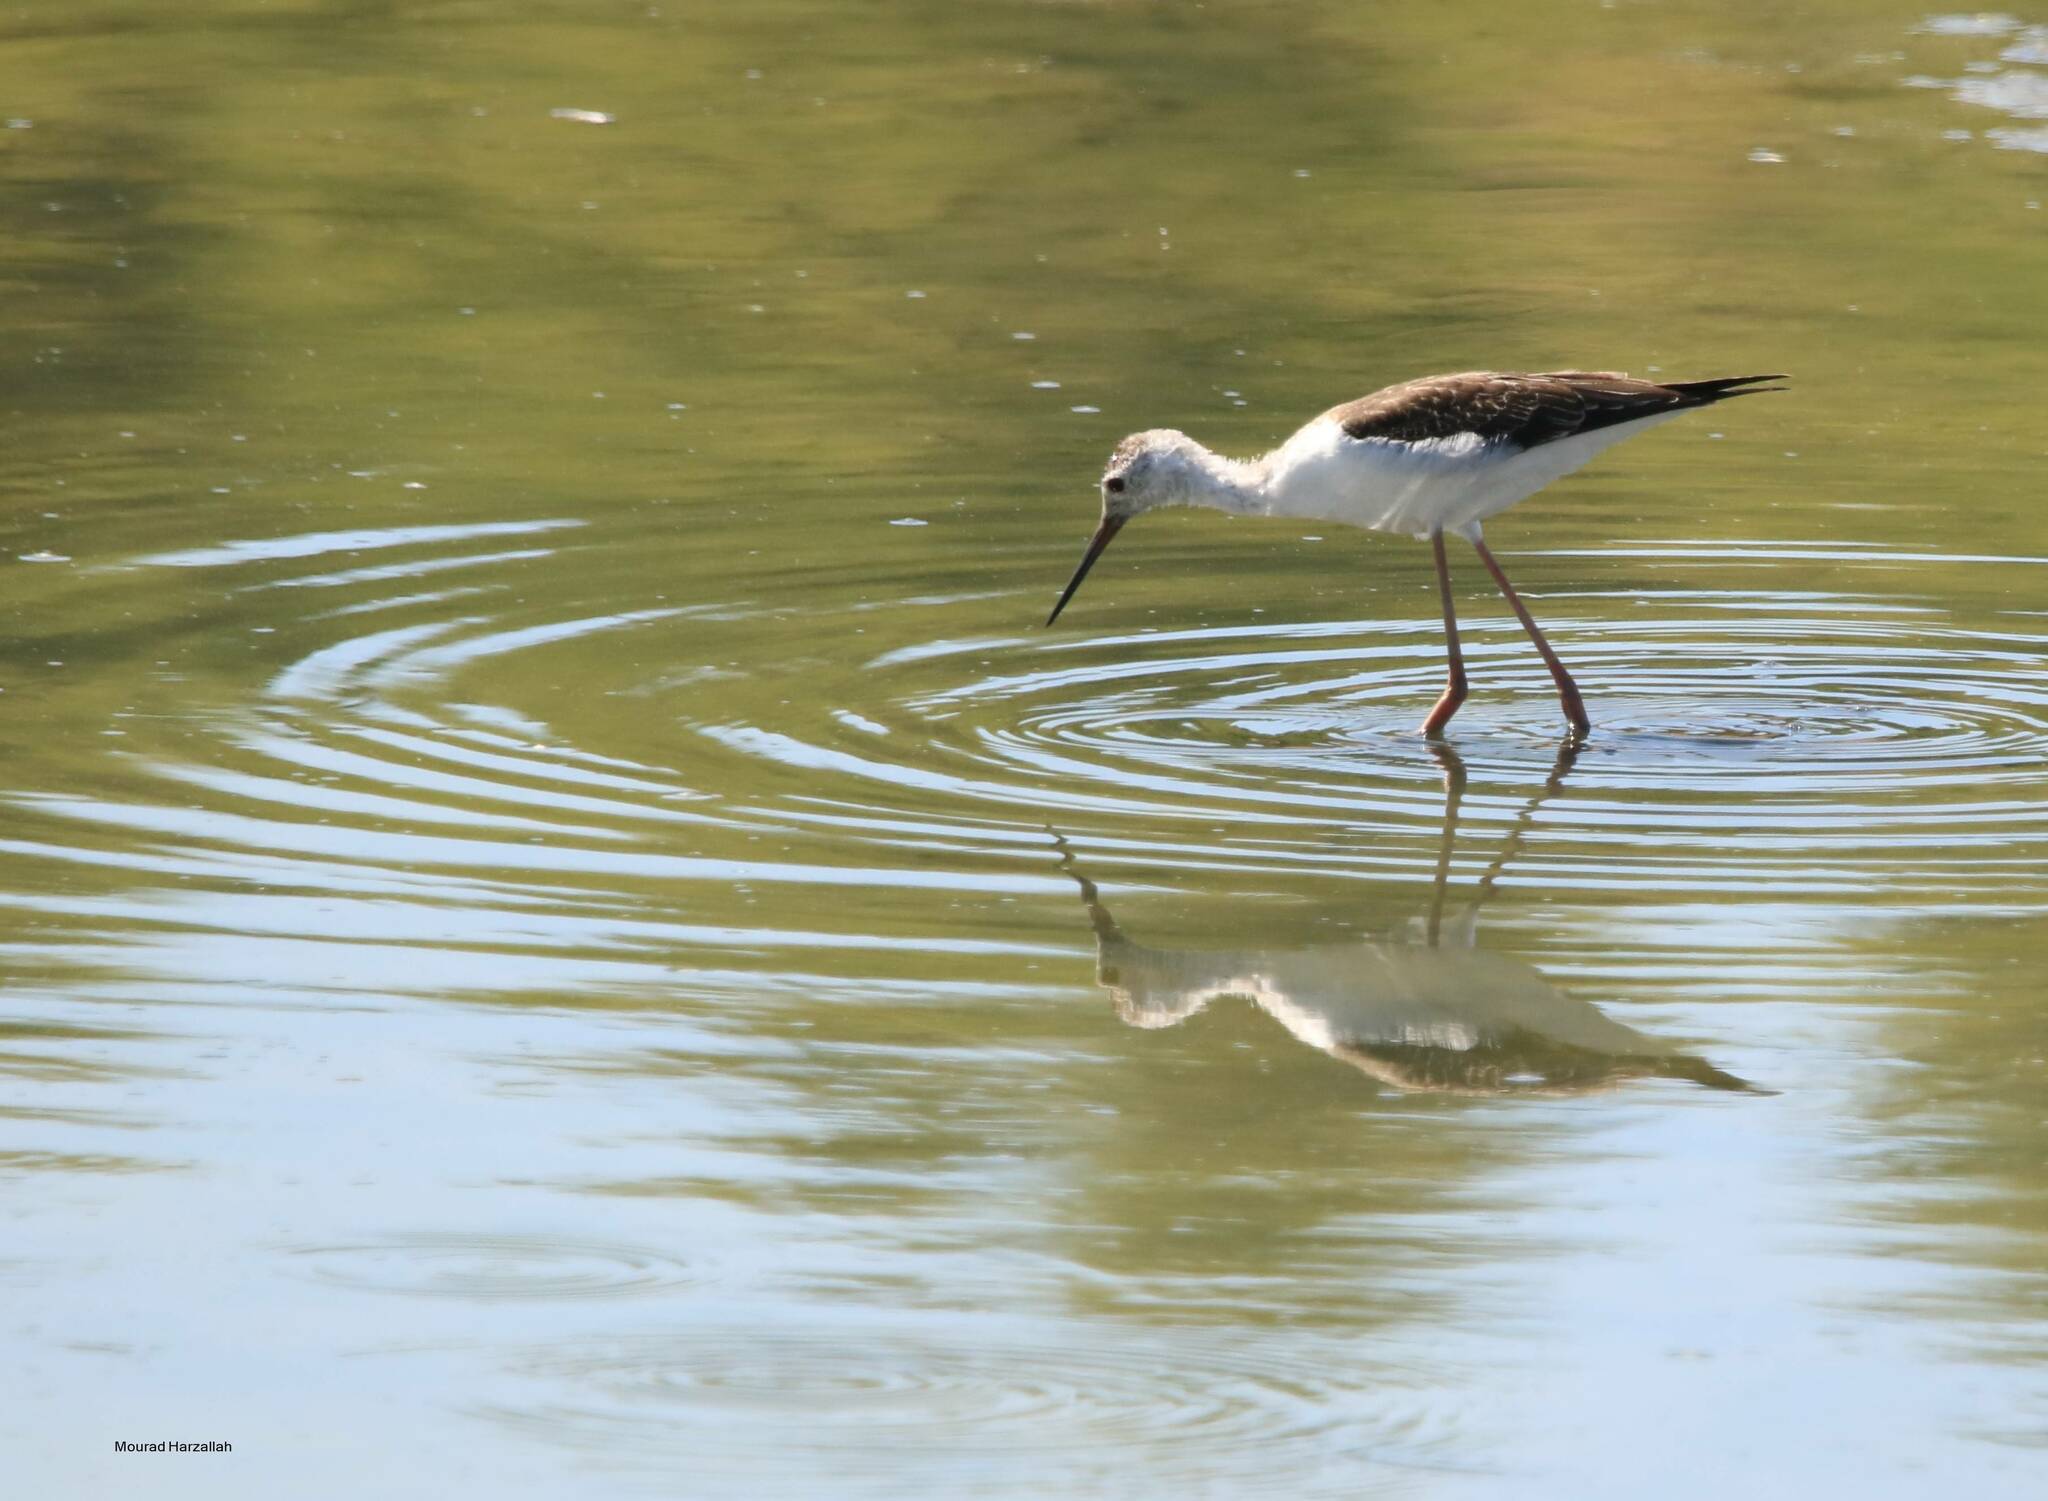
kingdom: Animalia
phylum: Chordata
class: Aves
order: Charadriiformes
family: Recurvirostridae
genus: Himantopus
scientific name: Himantopus himantopus
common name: Black-winged stilt
